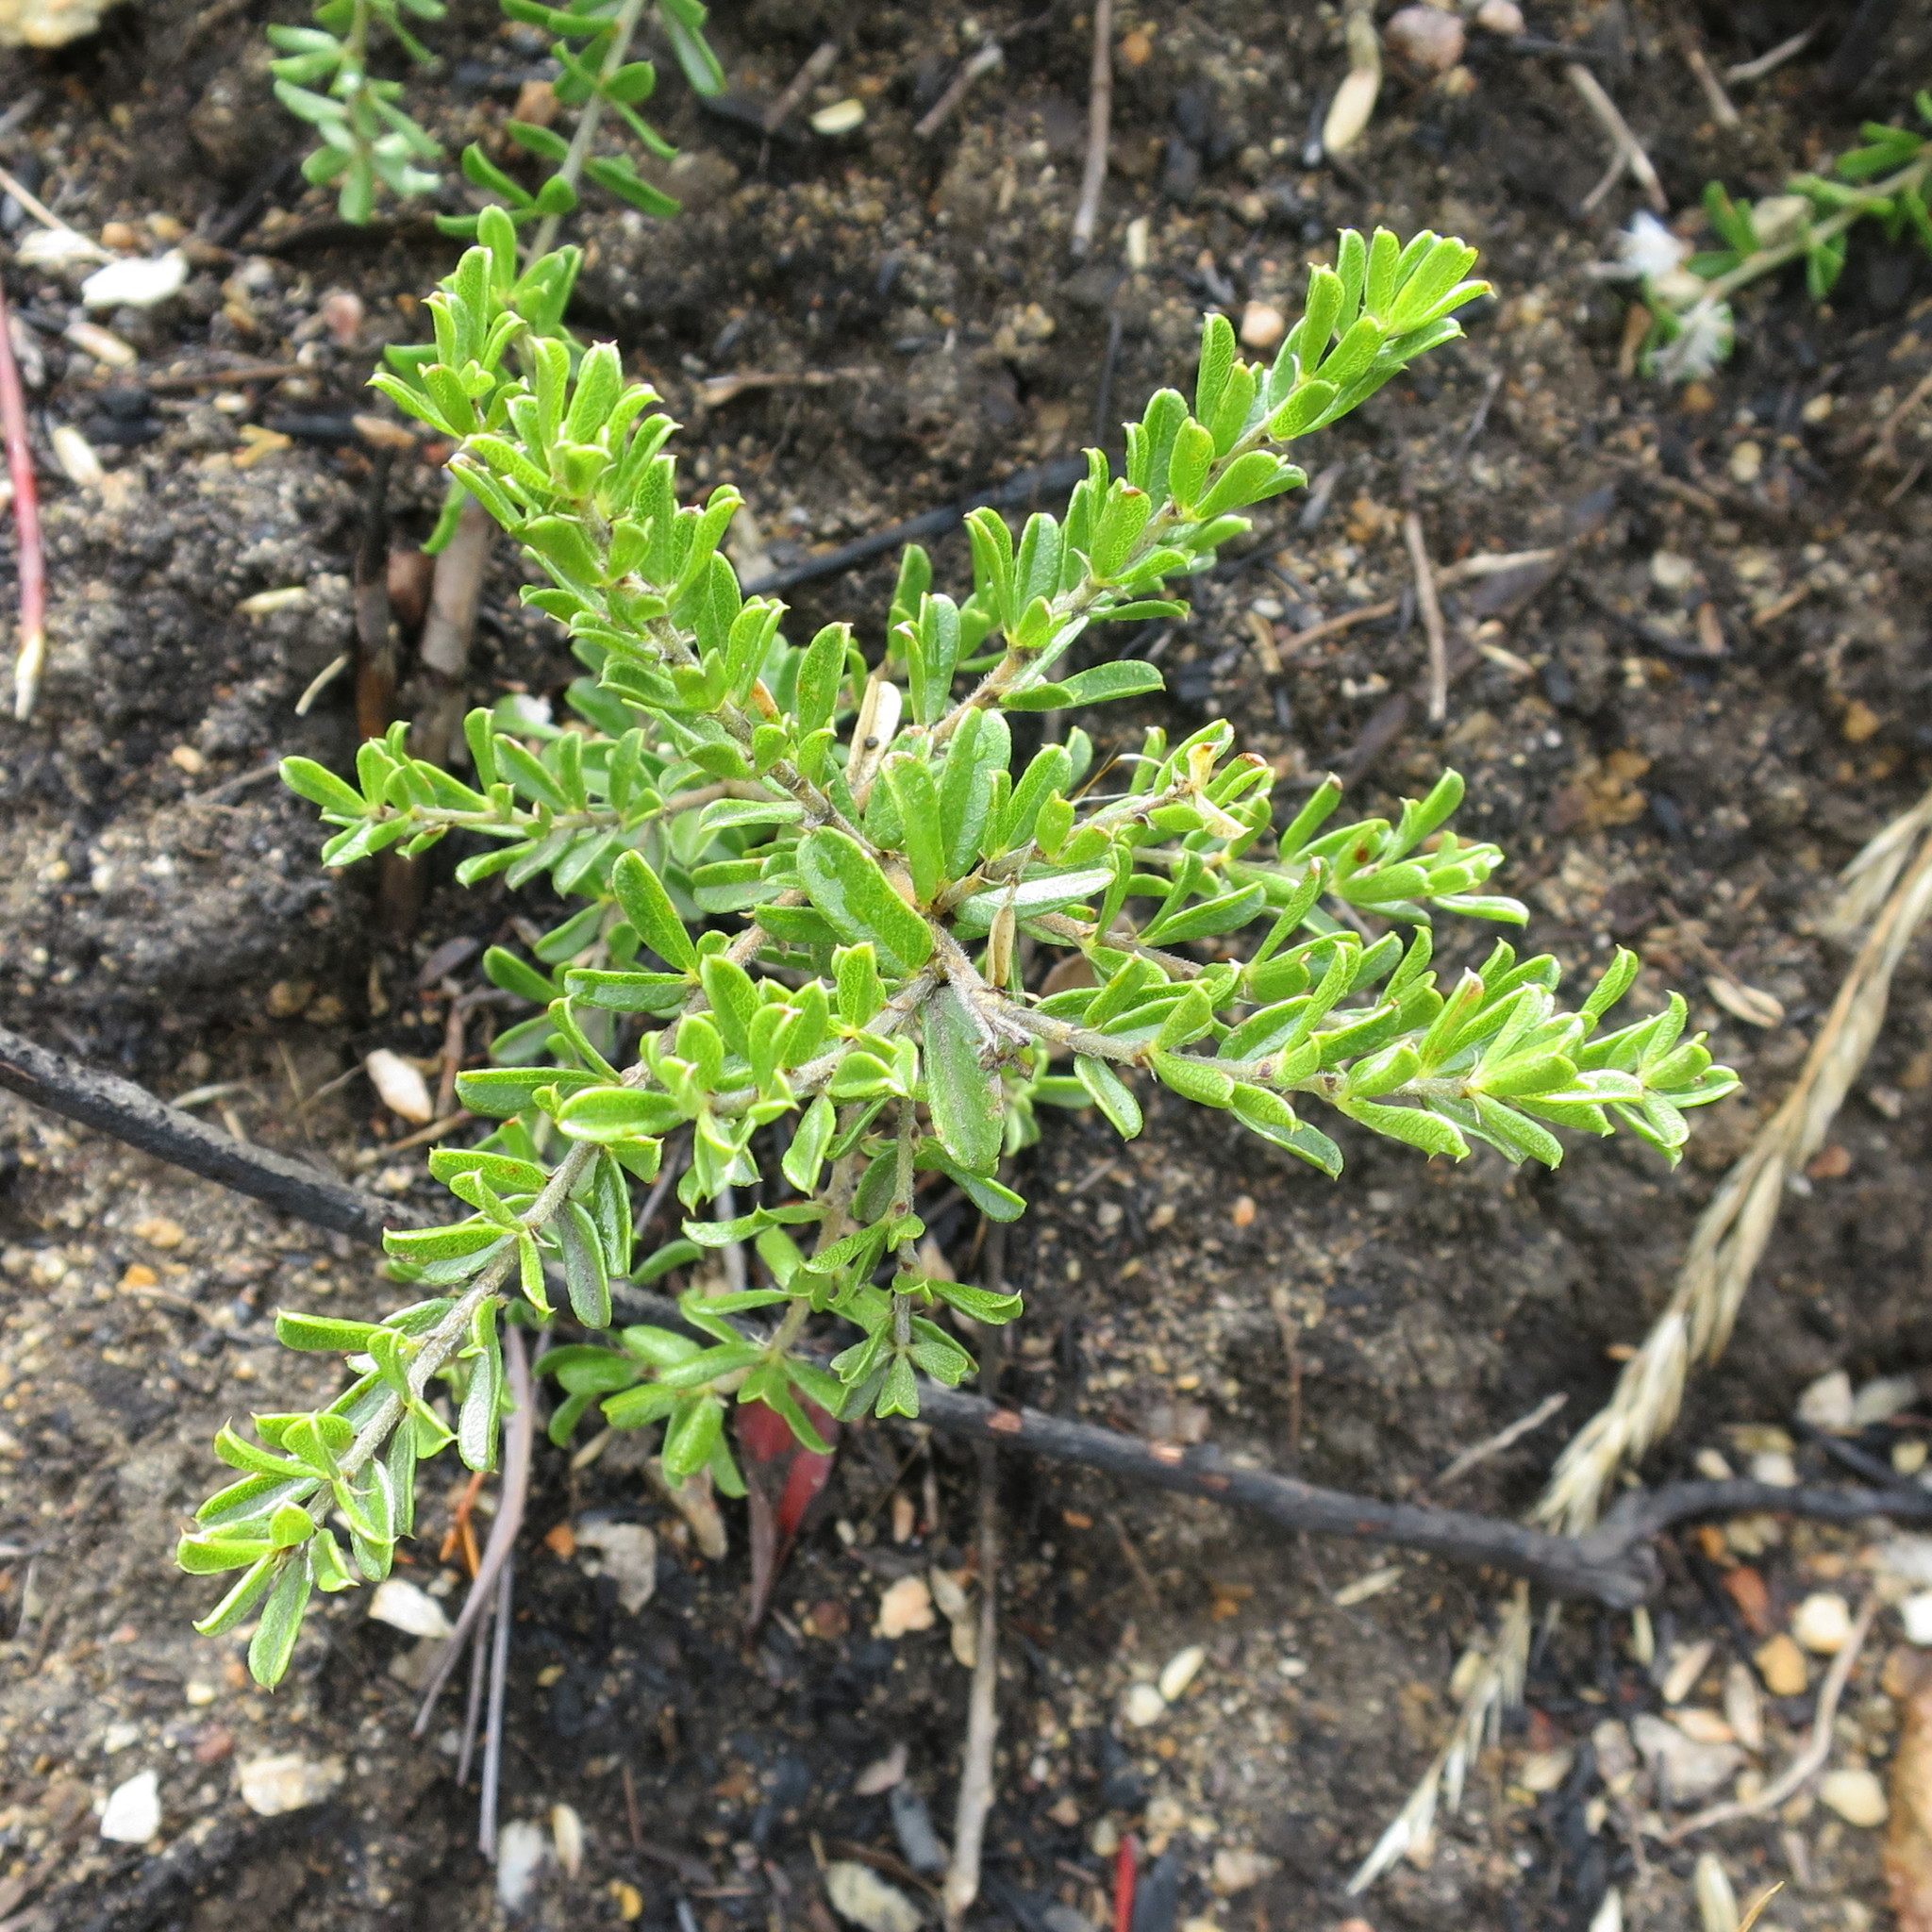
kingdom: Plantae
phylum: Tracheophyta
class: Magnoliopsida
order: Fabales
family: Fabaceae
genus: Psoralea
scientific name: Psoralea heterosepala
